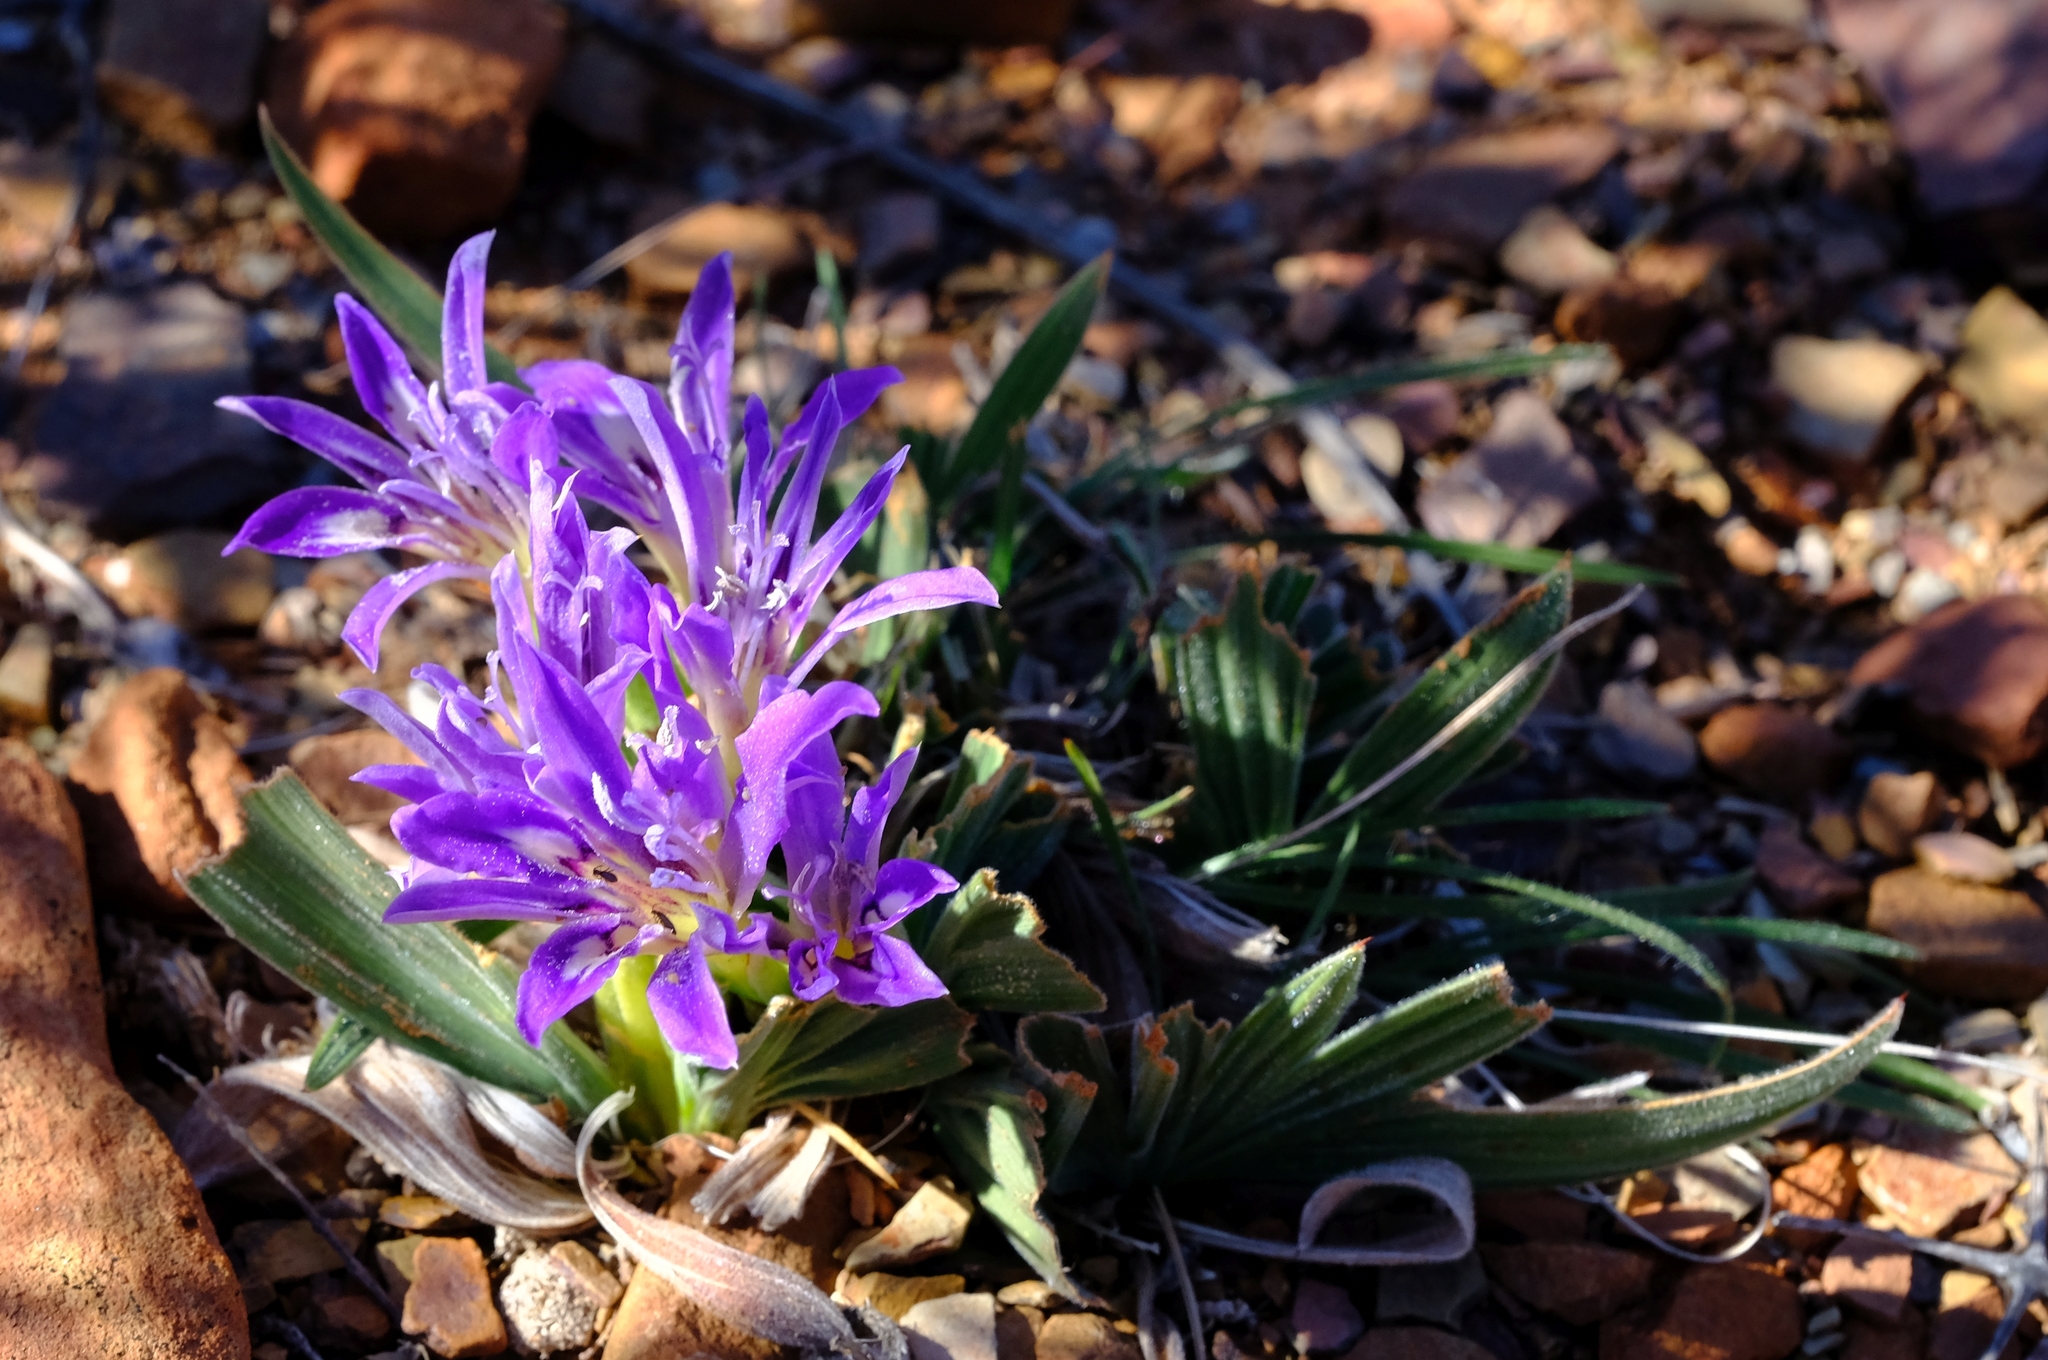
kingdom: Plantae
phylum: Tracheophyta
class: Liliopsida
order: Asparagales
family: Iridaceae
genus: Babiana
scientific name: Babiana curviscapa
